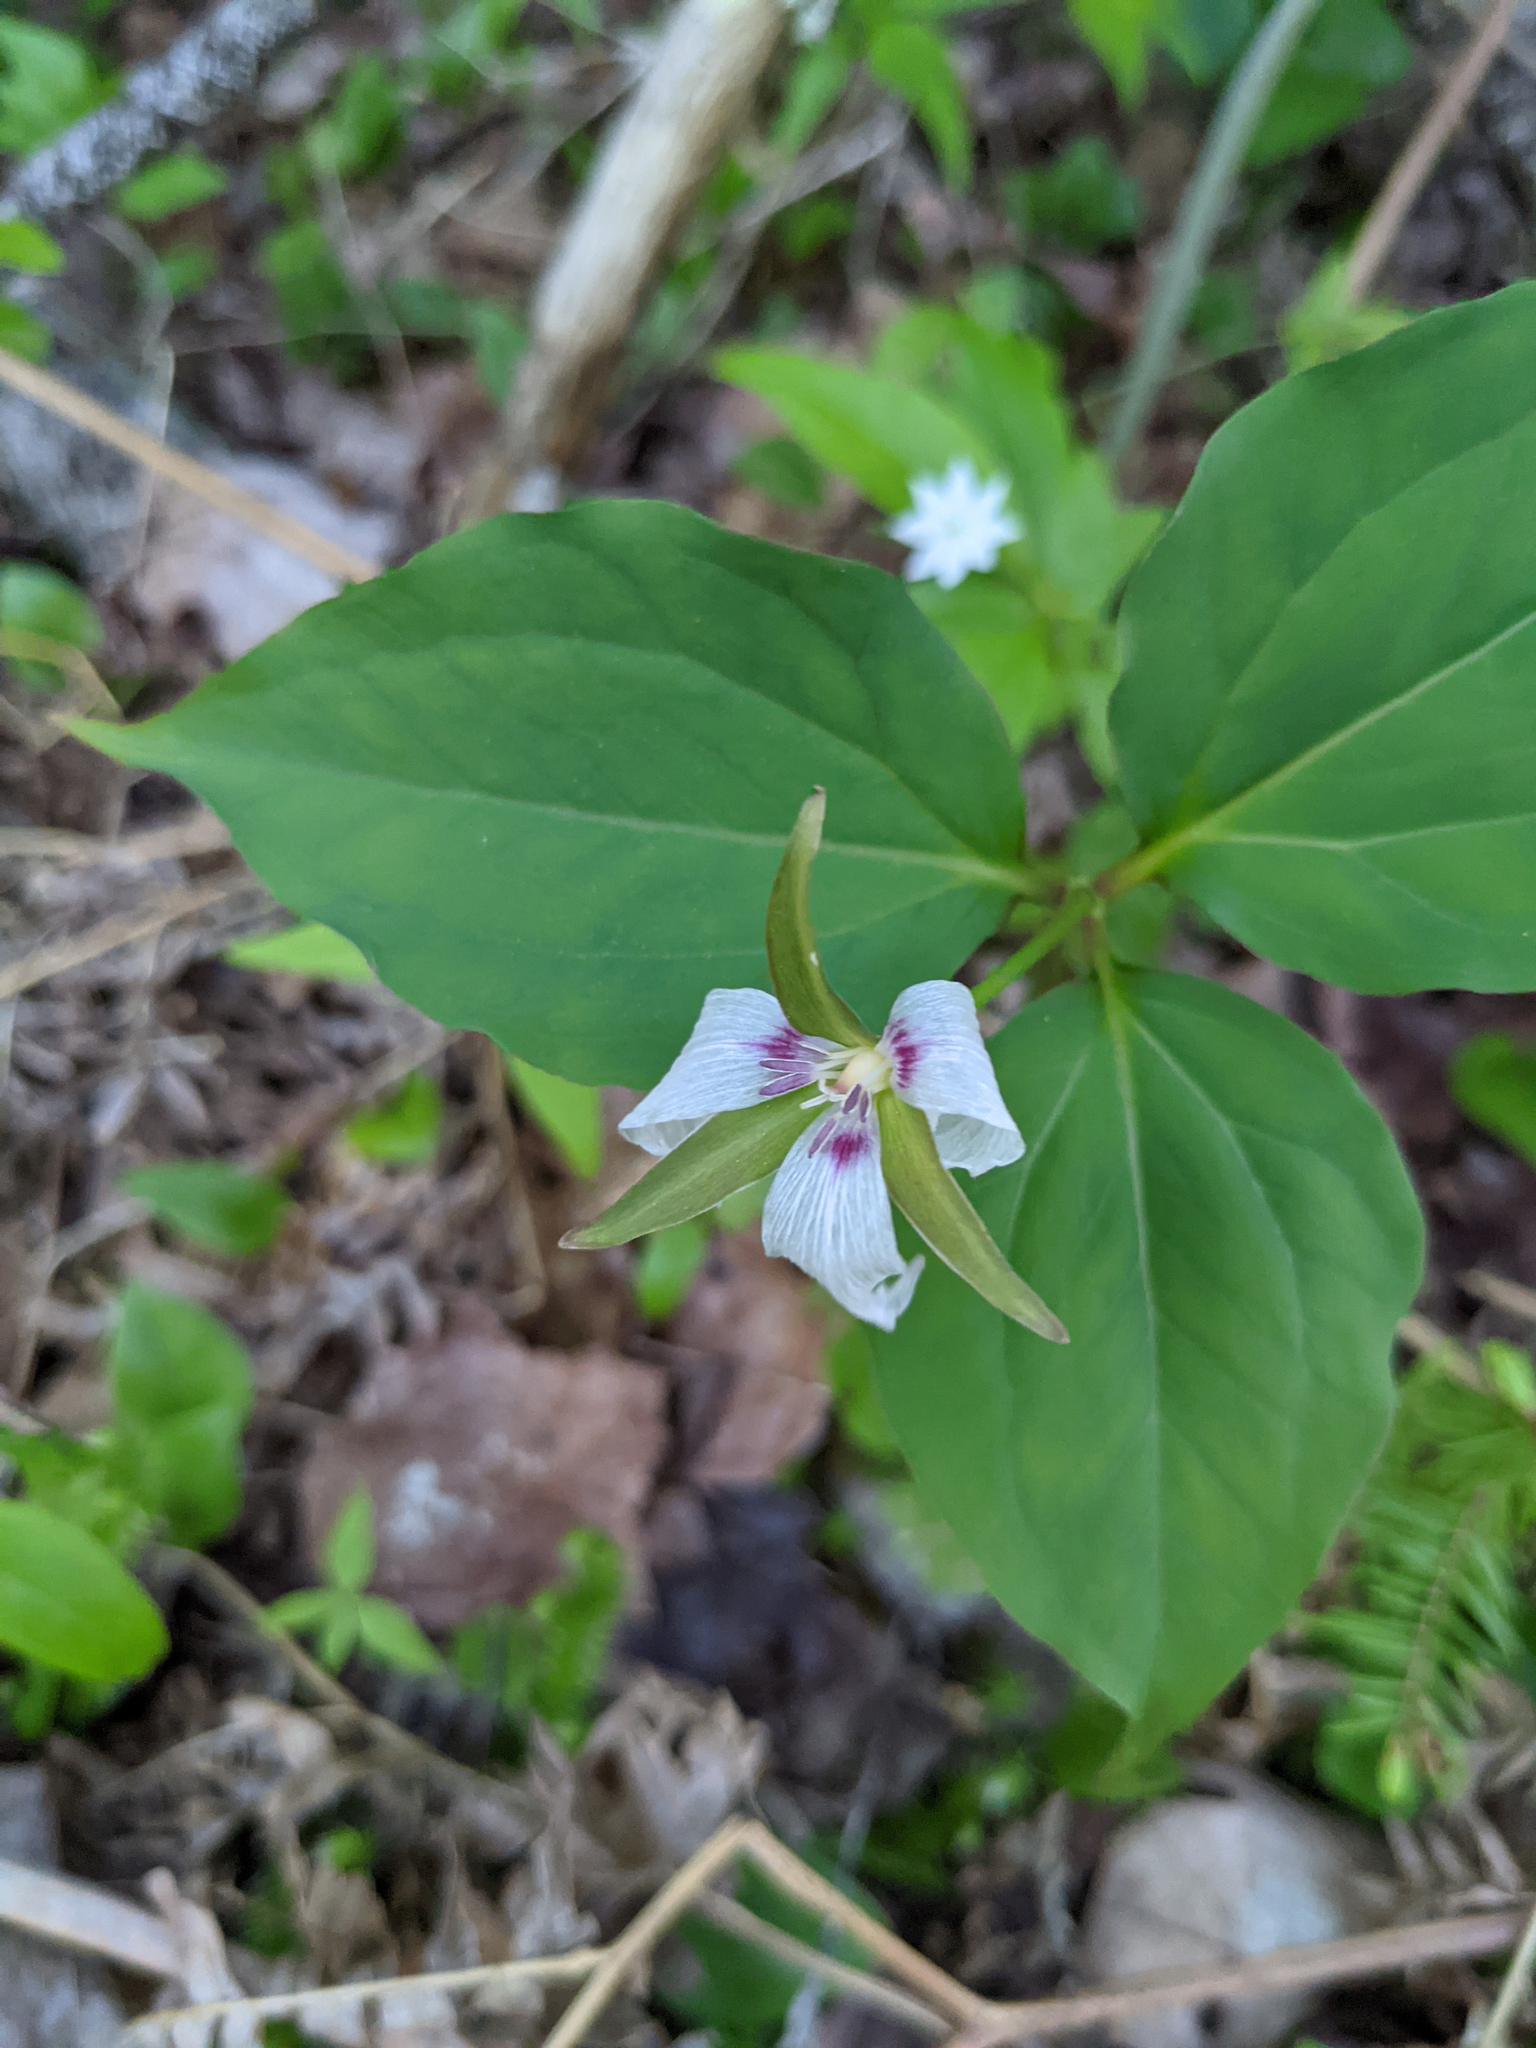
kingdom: Plantae
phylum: Tracheophyta
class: Liliopsida
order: Liliales
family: Melanthiaceae
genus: Trillium
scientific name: Trillium undulatum
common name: Paint trillium
